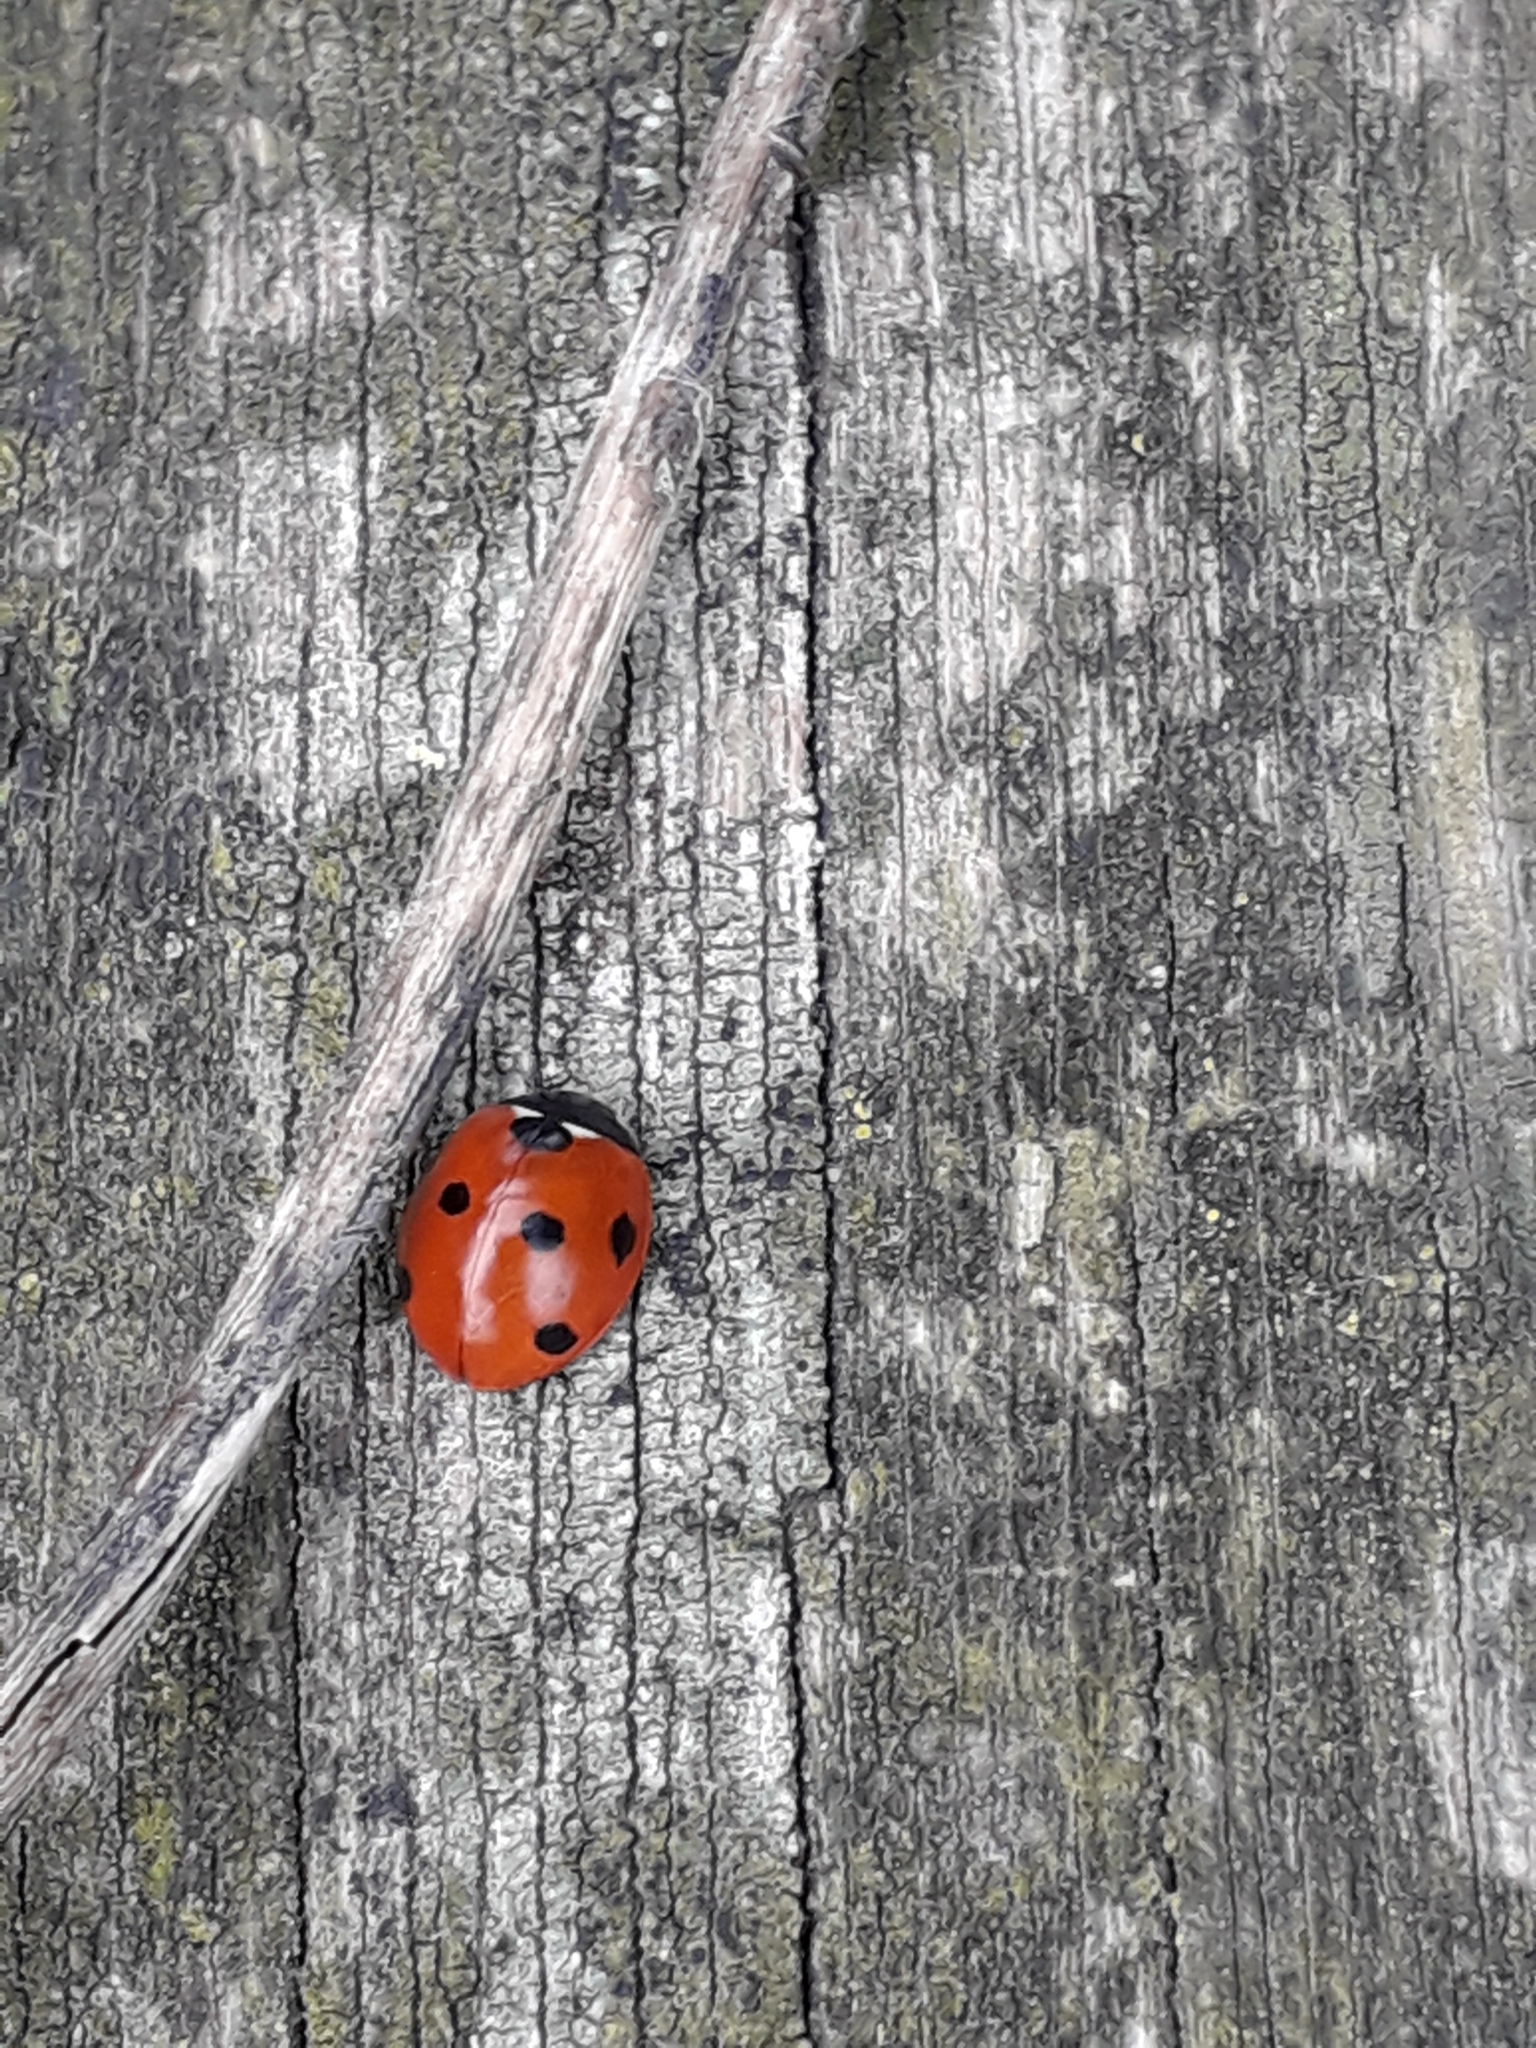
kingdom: Animalia
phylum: Arthropoda
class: Insecta
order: Coleoptera
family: Coccinellidae
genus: Coccinella
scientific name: Coccinella septempunctata
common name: Sevenspotted lady beetle
